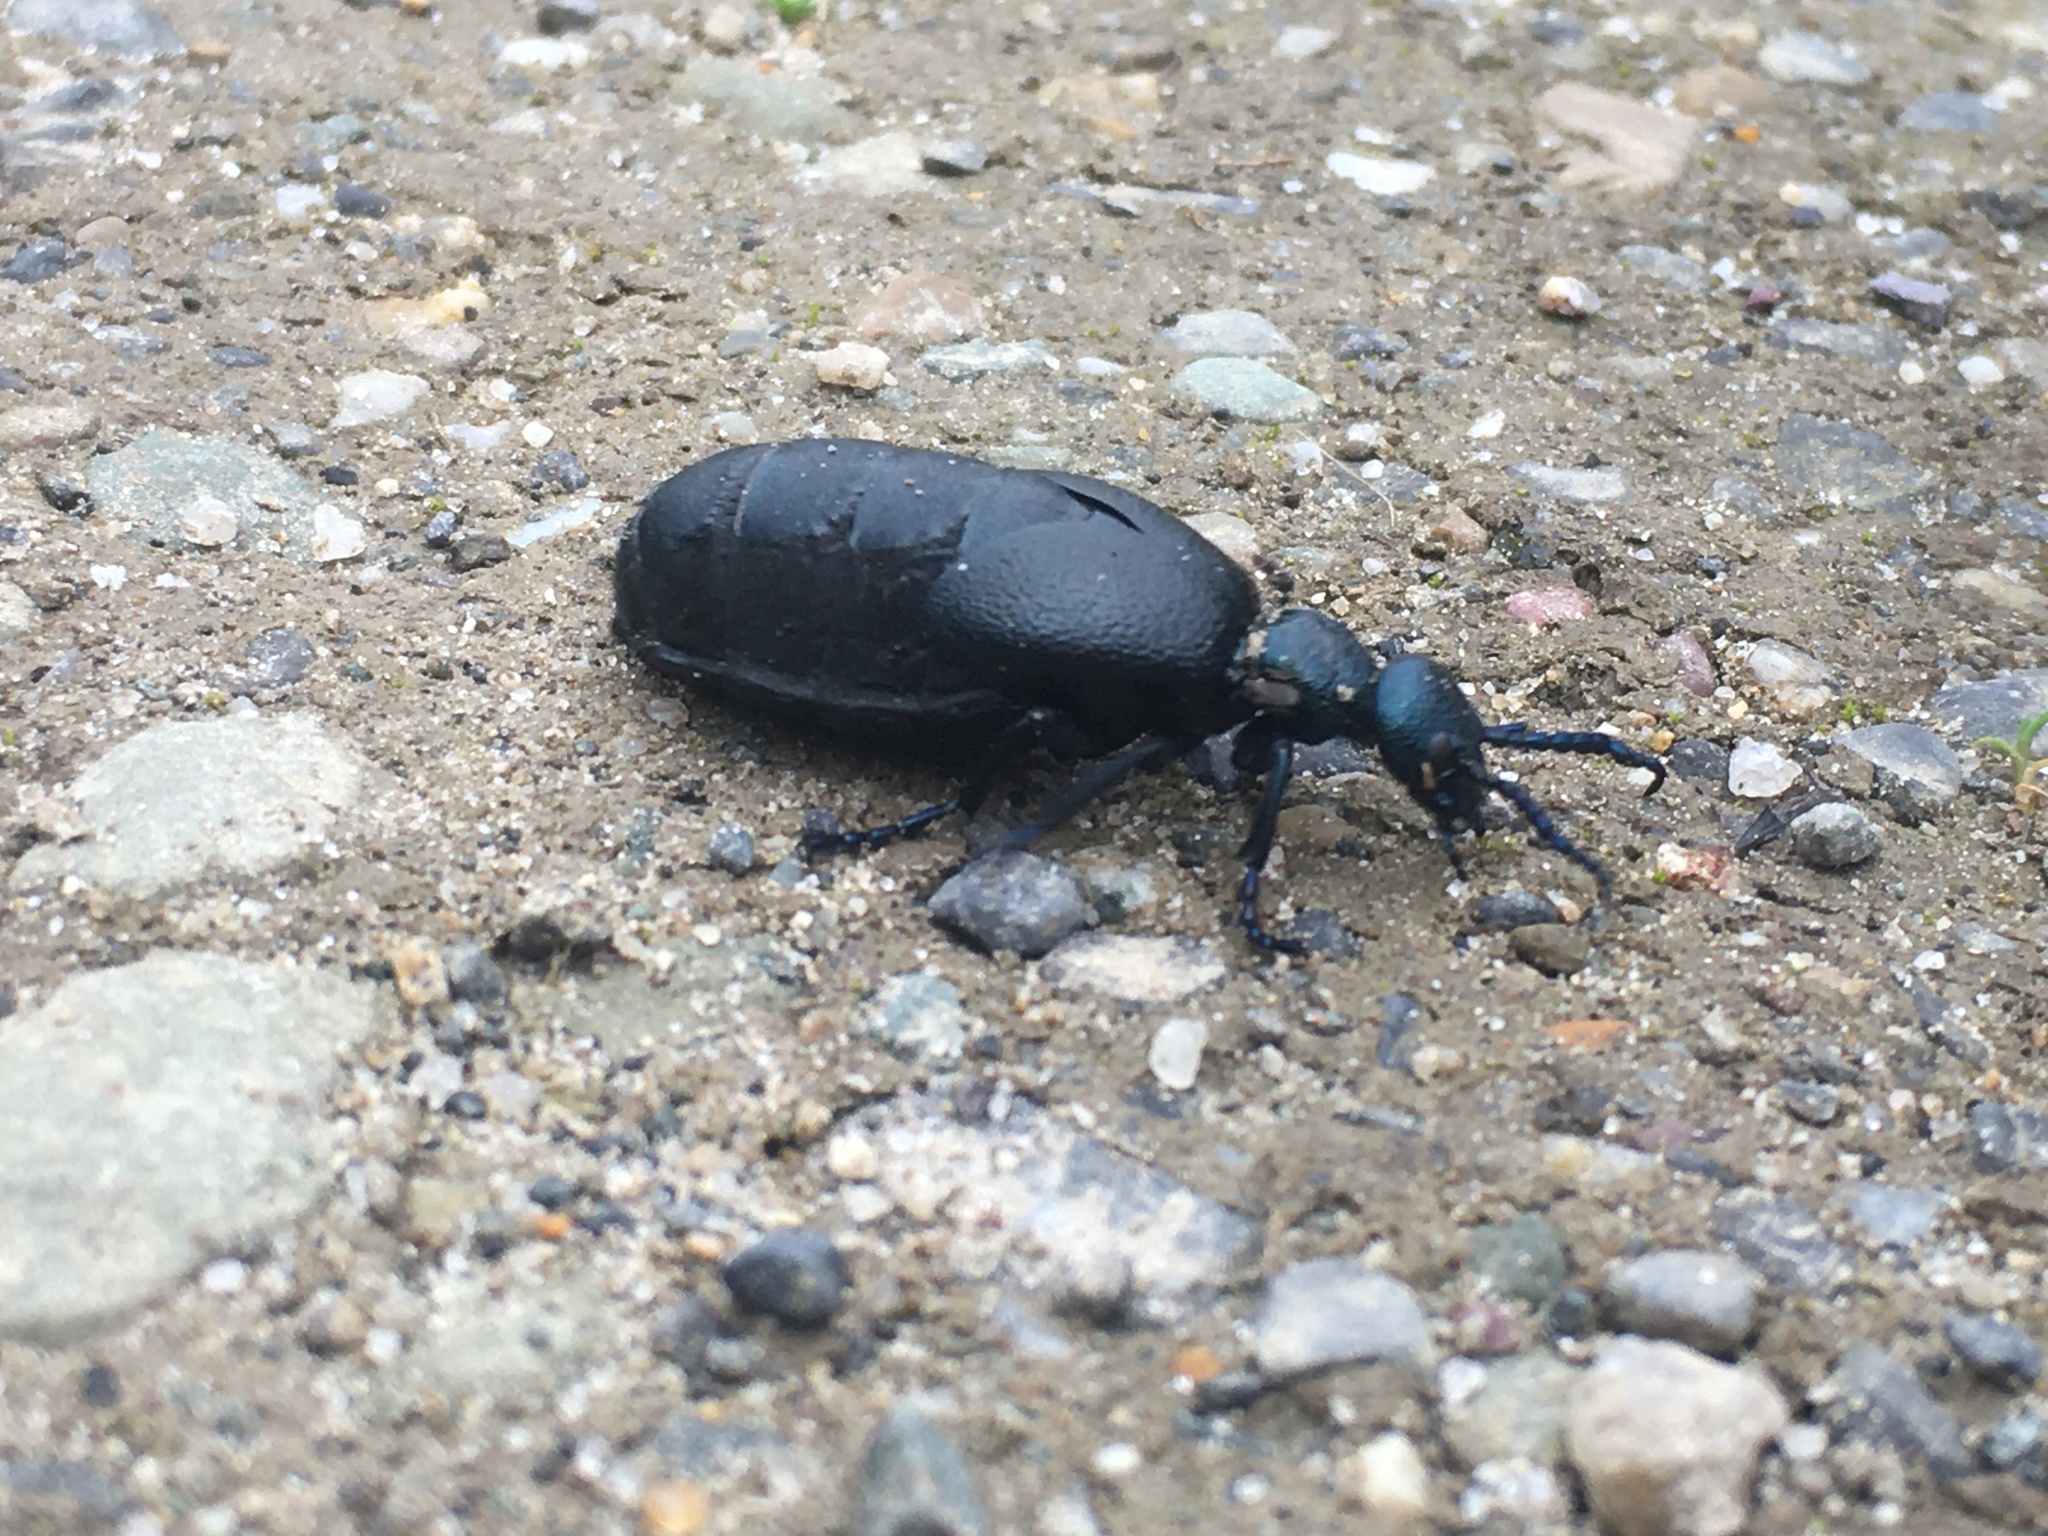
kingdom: Animalia
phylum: Arthropoda
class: Insecta
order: Coleoptera
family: Meloidae
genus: Meloe
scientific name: Meloe proscarabaeus
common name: Black oil-beetle
